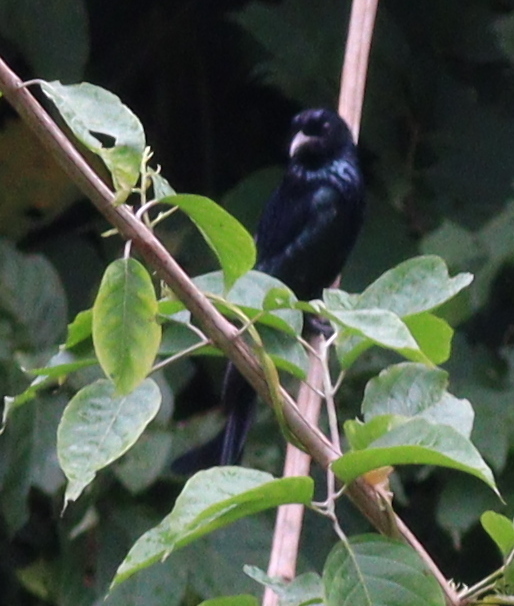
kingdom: Animalia
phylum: Chordata
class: Aves
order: Passeriformes
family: Dicruridae
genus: Dicrurus
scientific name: Dicrurus hottentottus
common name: Hair-crested drongo
